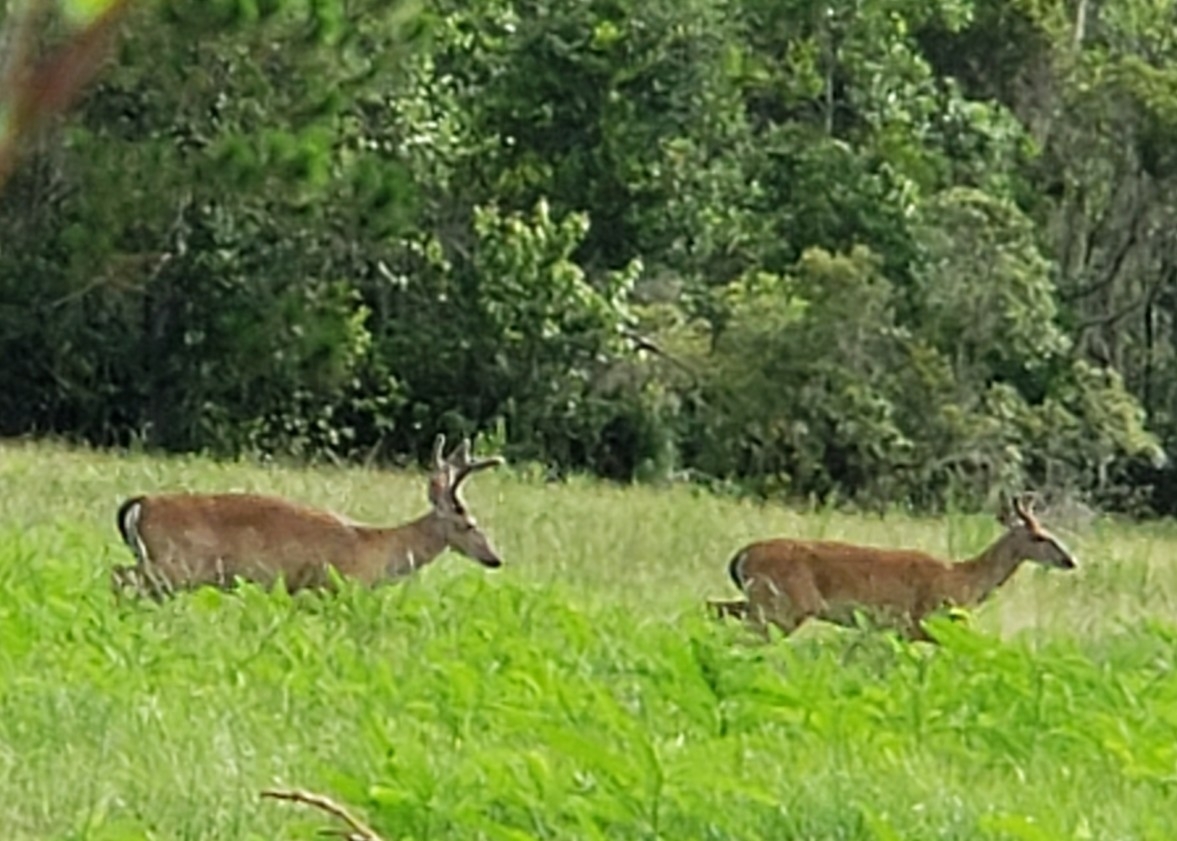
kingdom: Animalia
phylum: Chordata
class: Mammalia
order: Artiodactyla
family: Cervidae
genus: Odocoileus
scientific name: Odocoileus virginianus
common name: White-tailed deer
